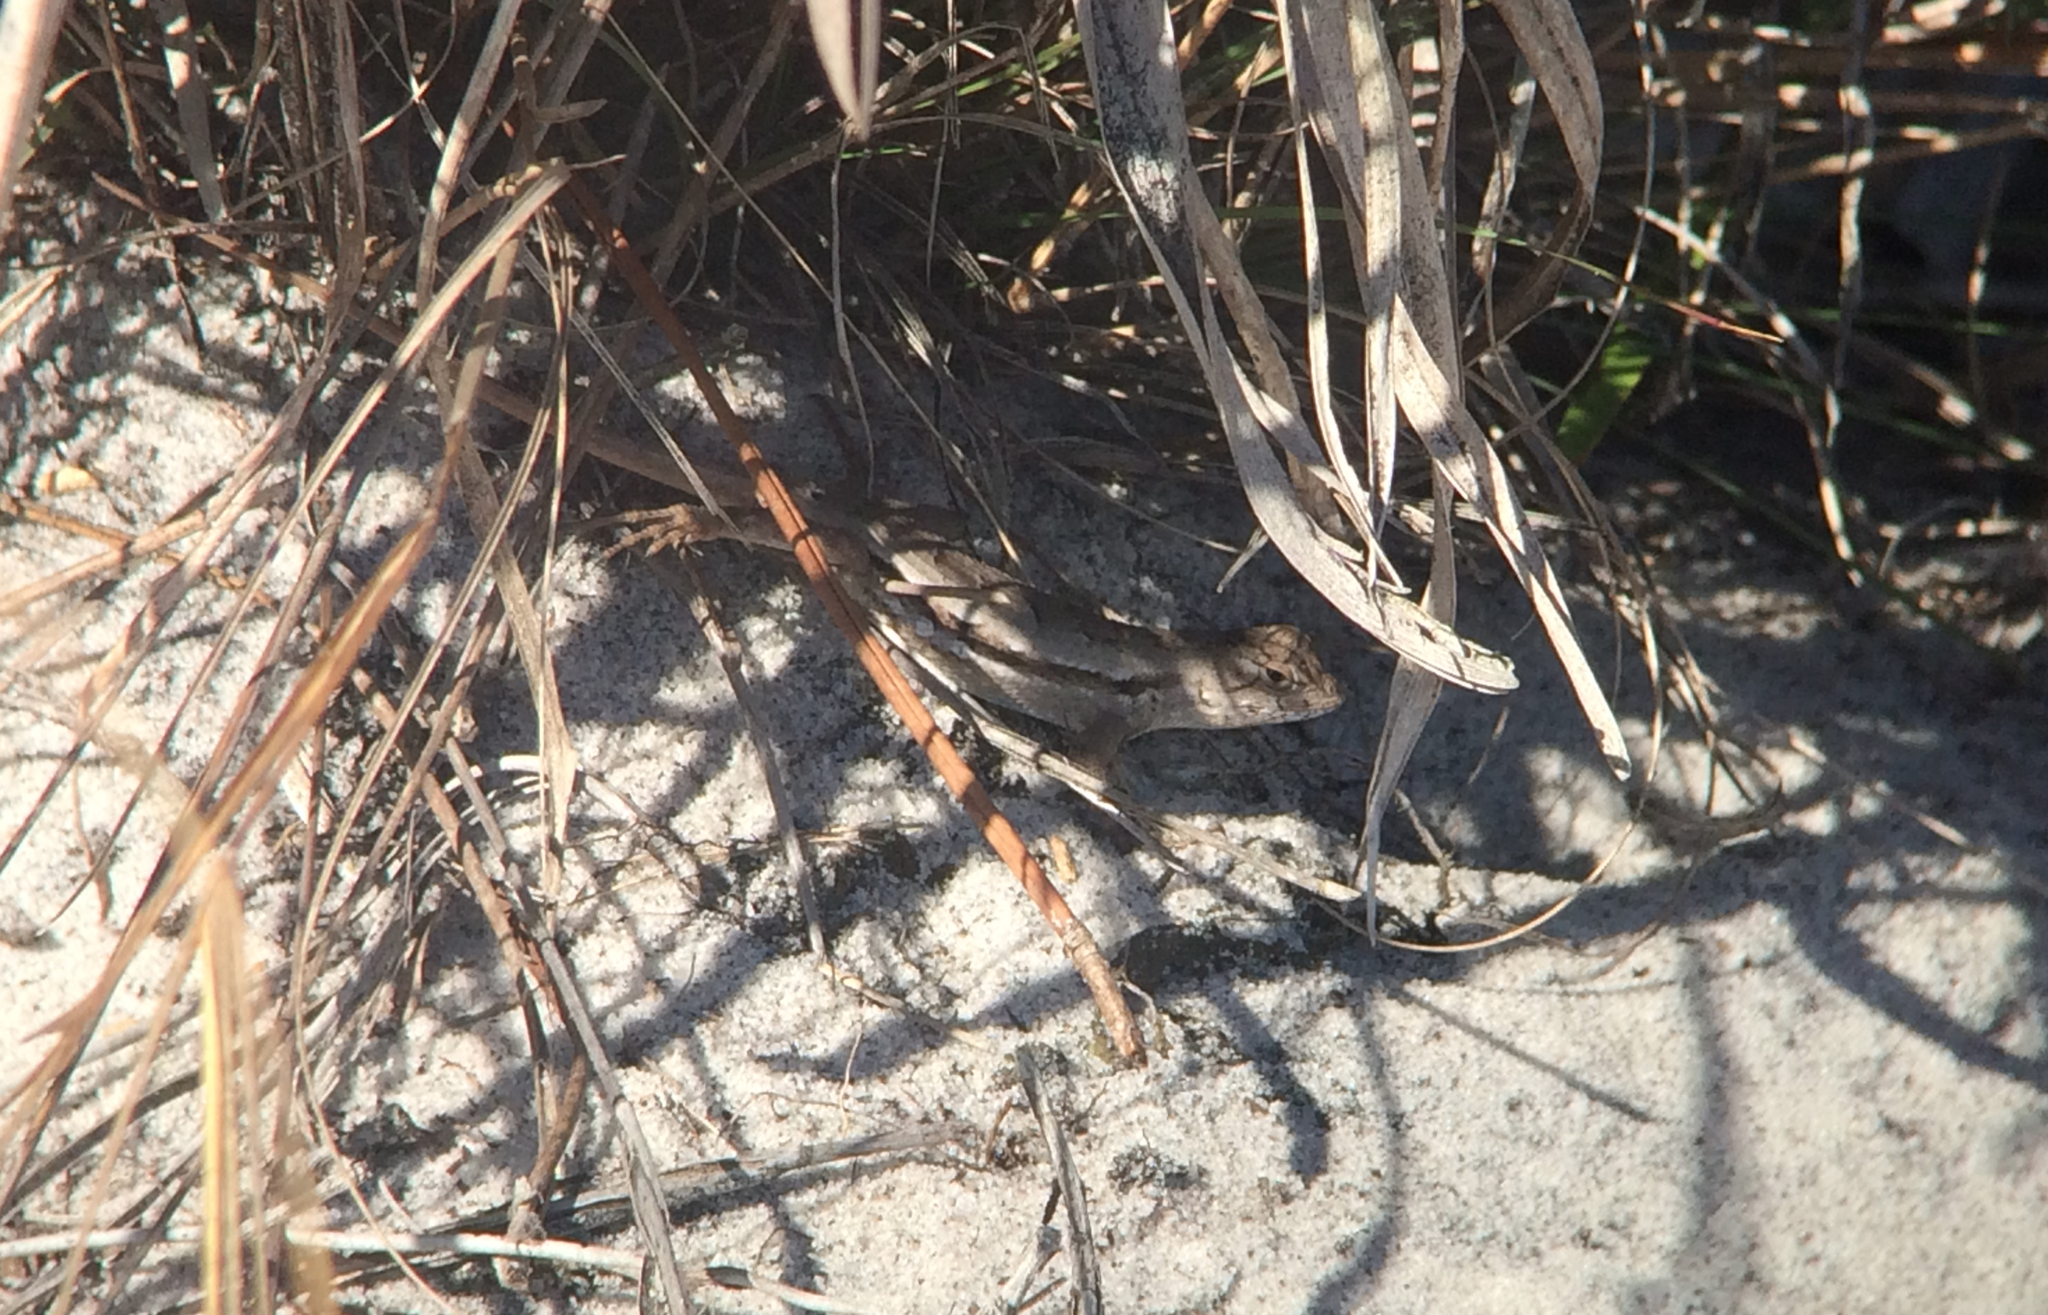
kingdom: Animalia
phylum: Chordata
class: Squamata
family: Phrynosomatidae
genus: Sceloporus
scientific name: Sceloporus woodi
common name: Florida scrub lizard
